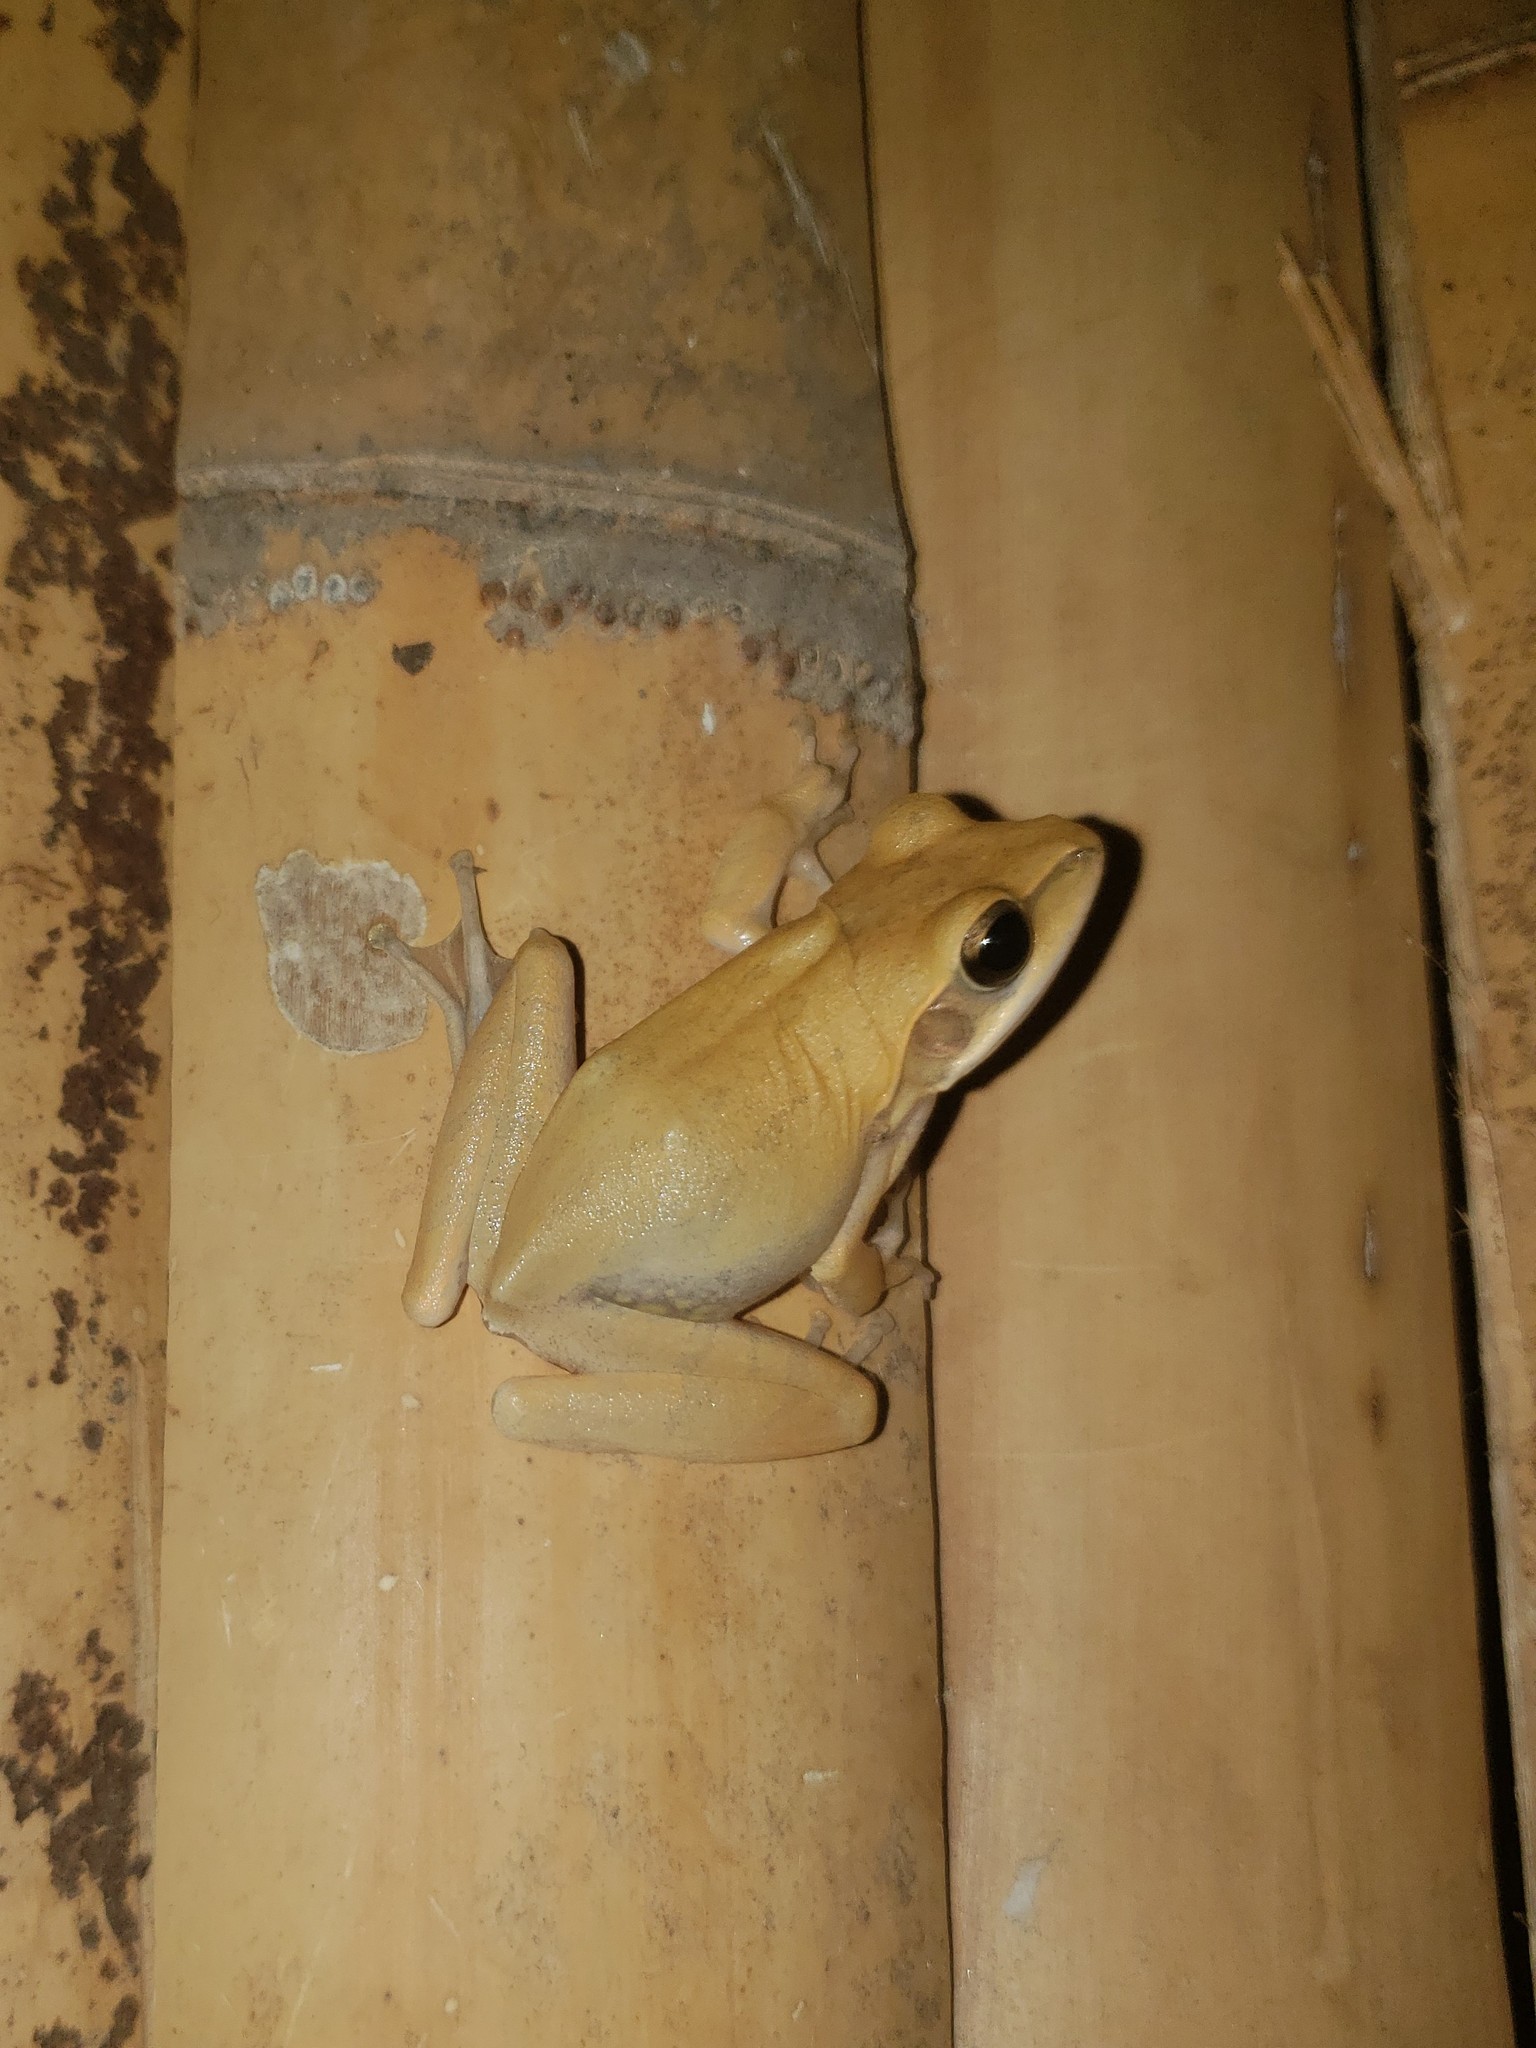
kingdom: Animalia
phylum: Chordata
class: Amphibia
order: Anura
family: Rhacophoridae
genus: Polypedates
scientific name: Polypedates maculatus
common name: Himalayan tree frog
